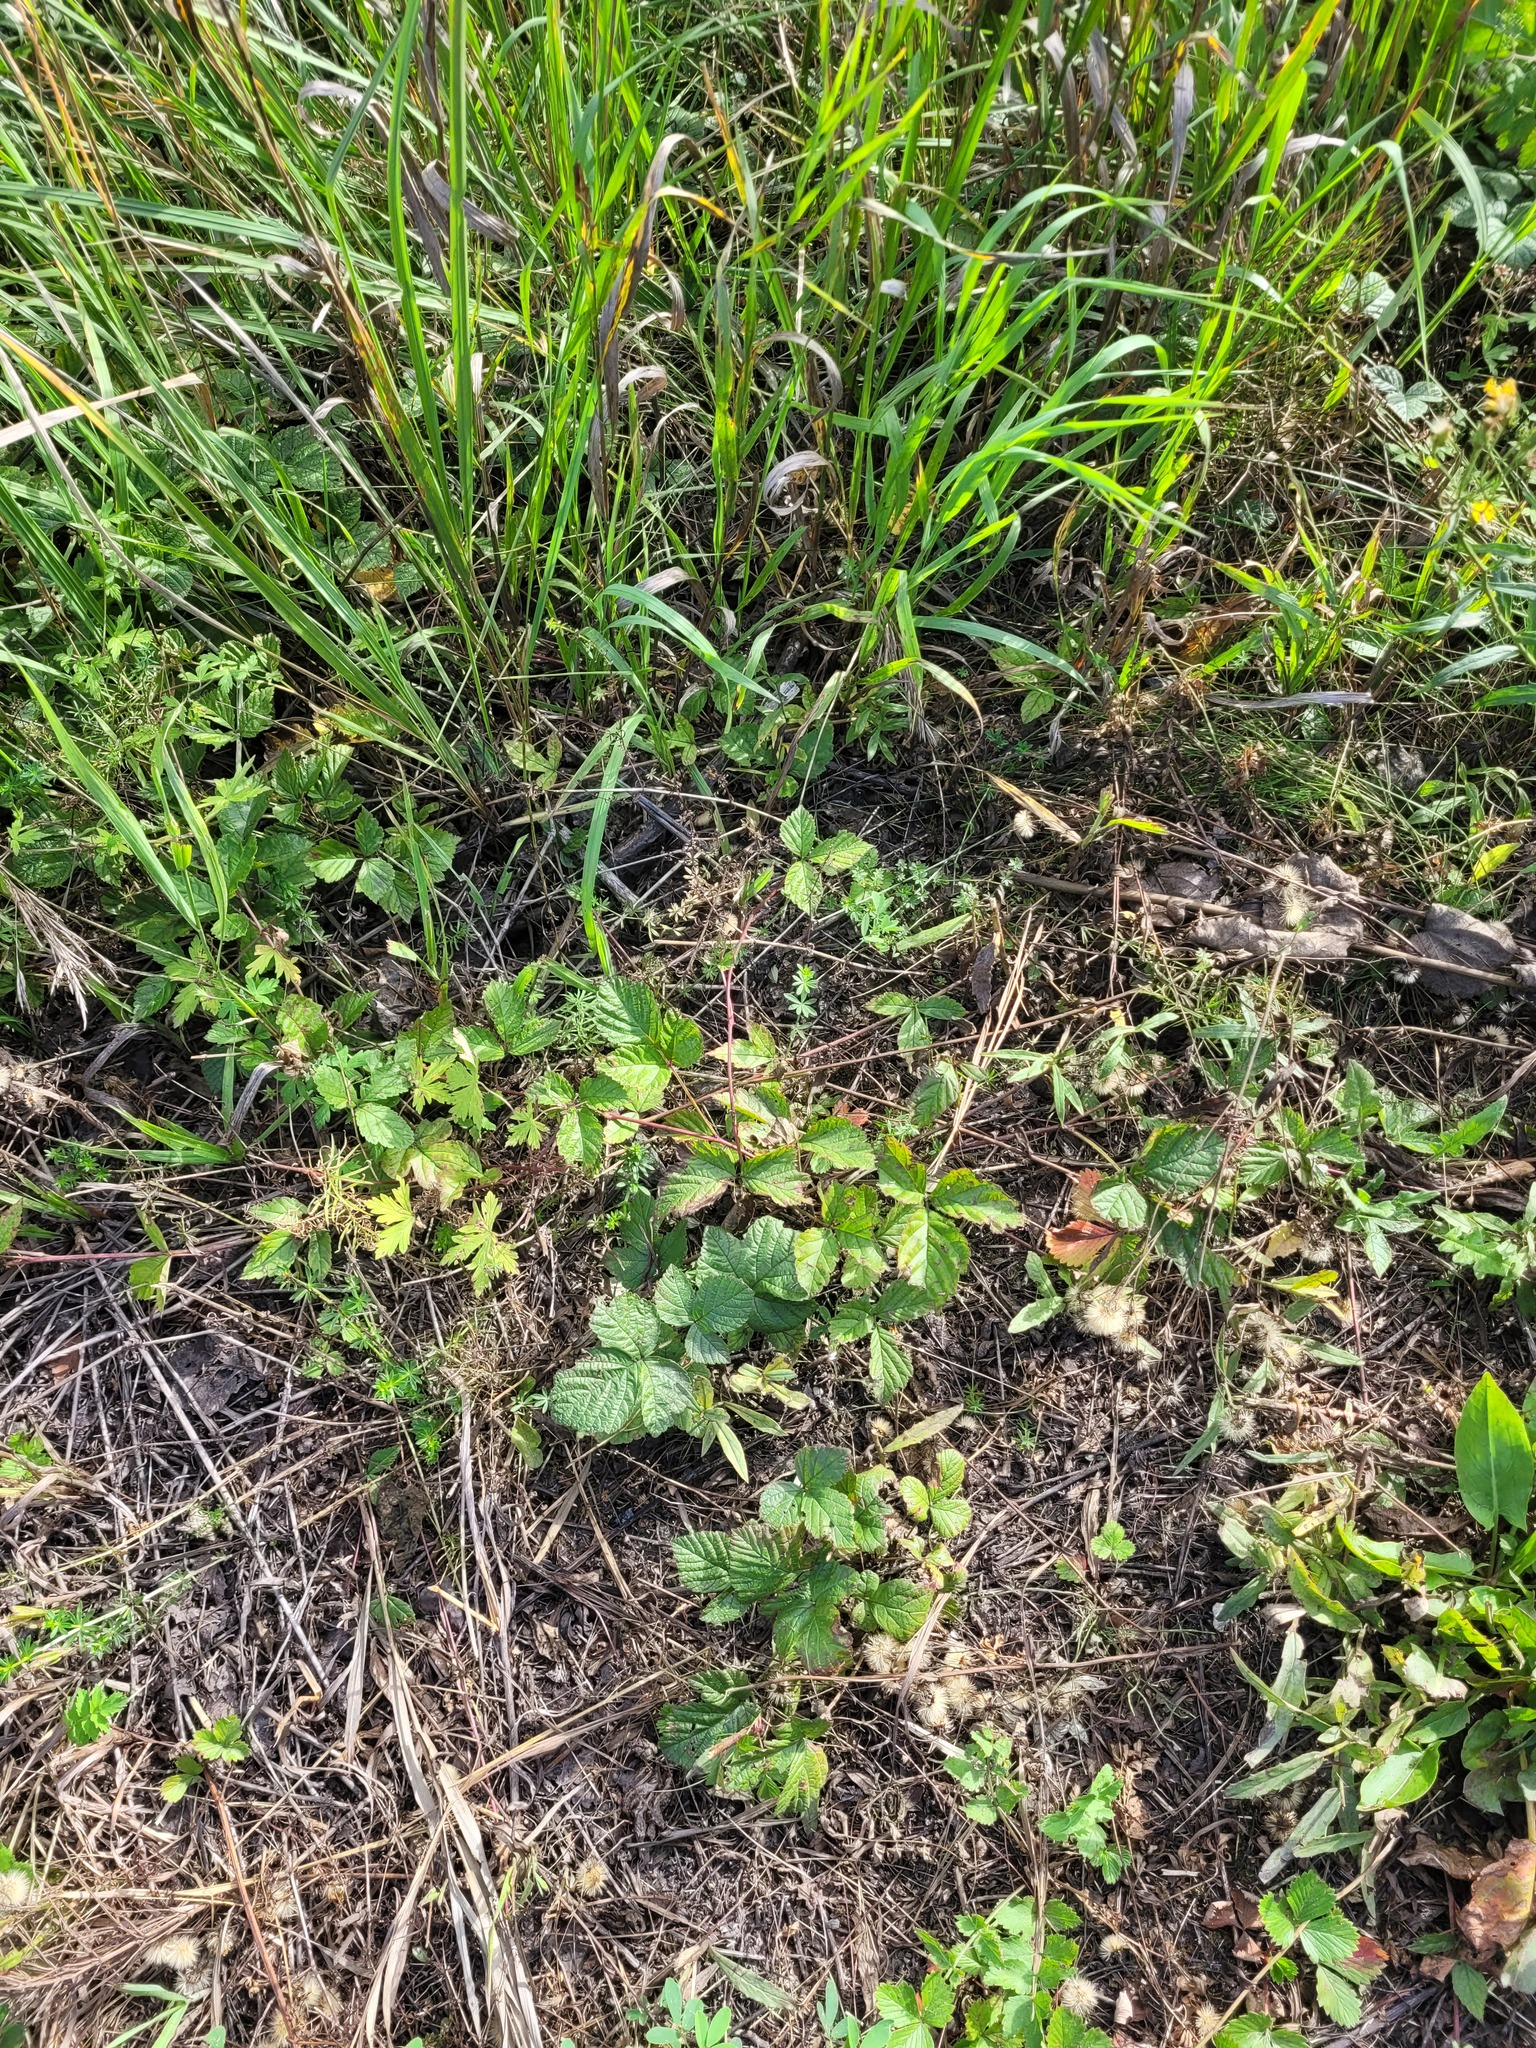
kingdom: Plantae
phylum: Tracheophyta
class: Magnoliopsida
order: Rosales
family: Rosaceae
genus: Rubus
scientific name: Rubus saxatilis
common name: Stone bramble
